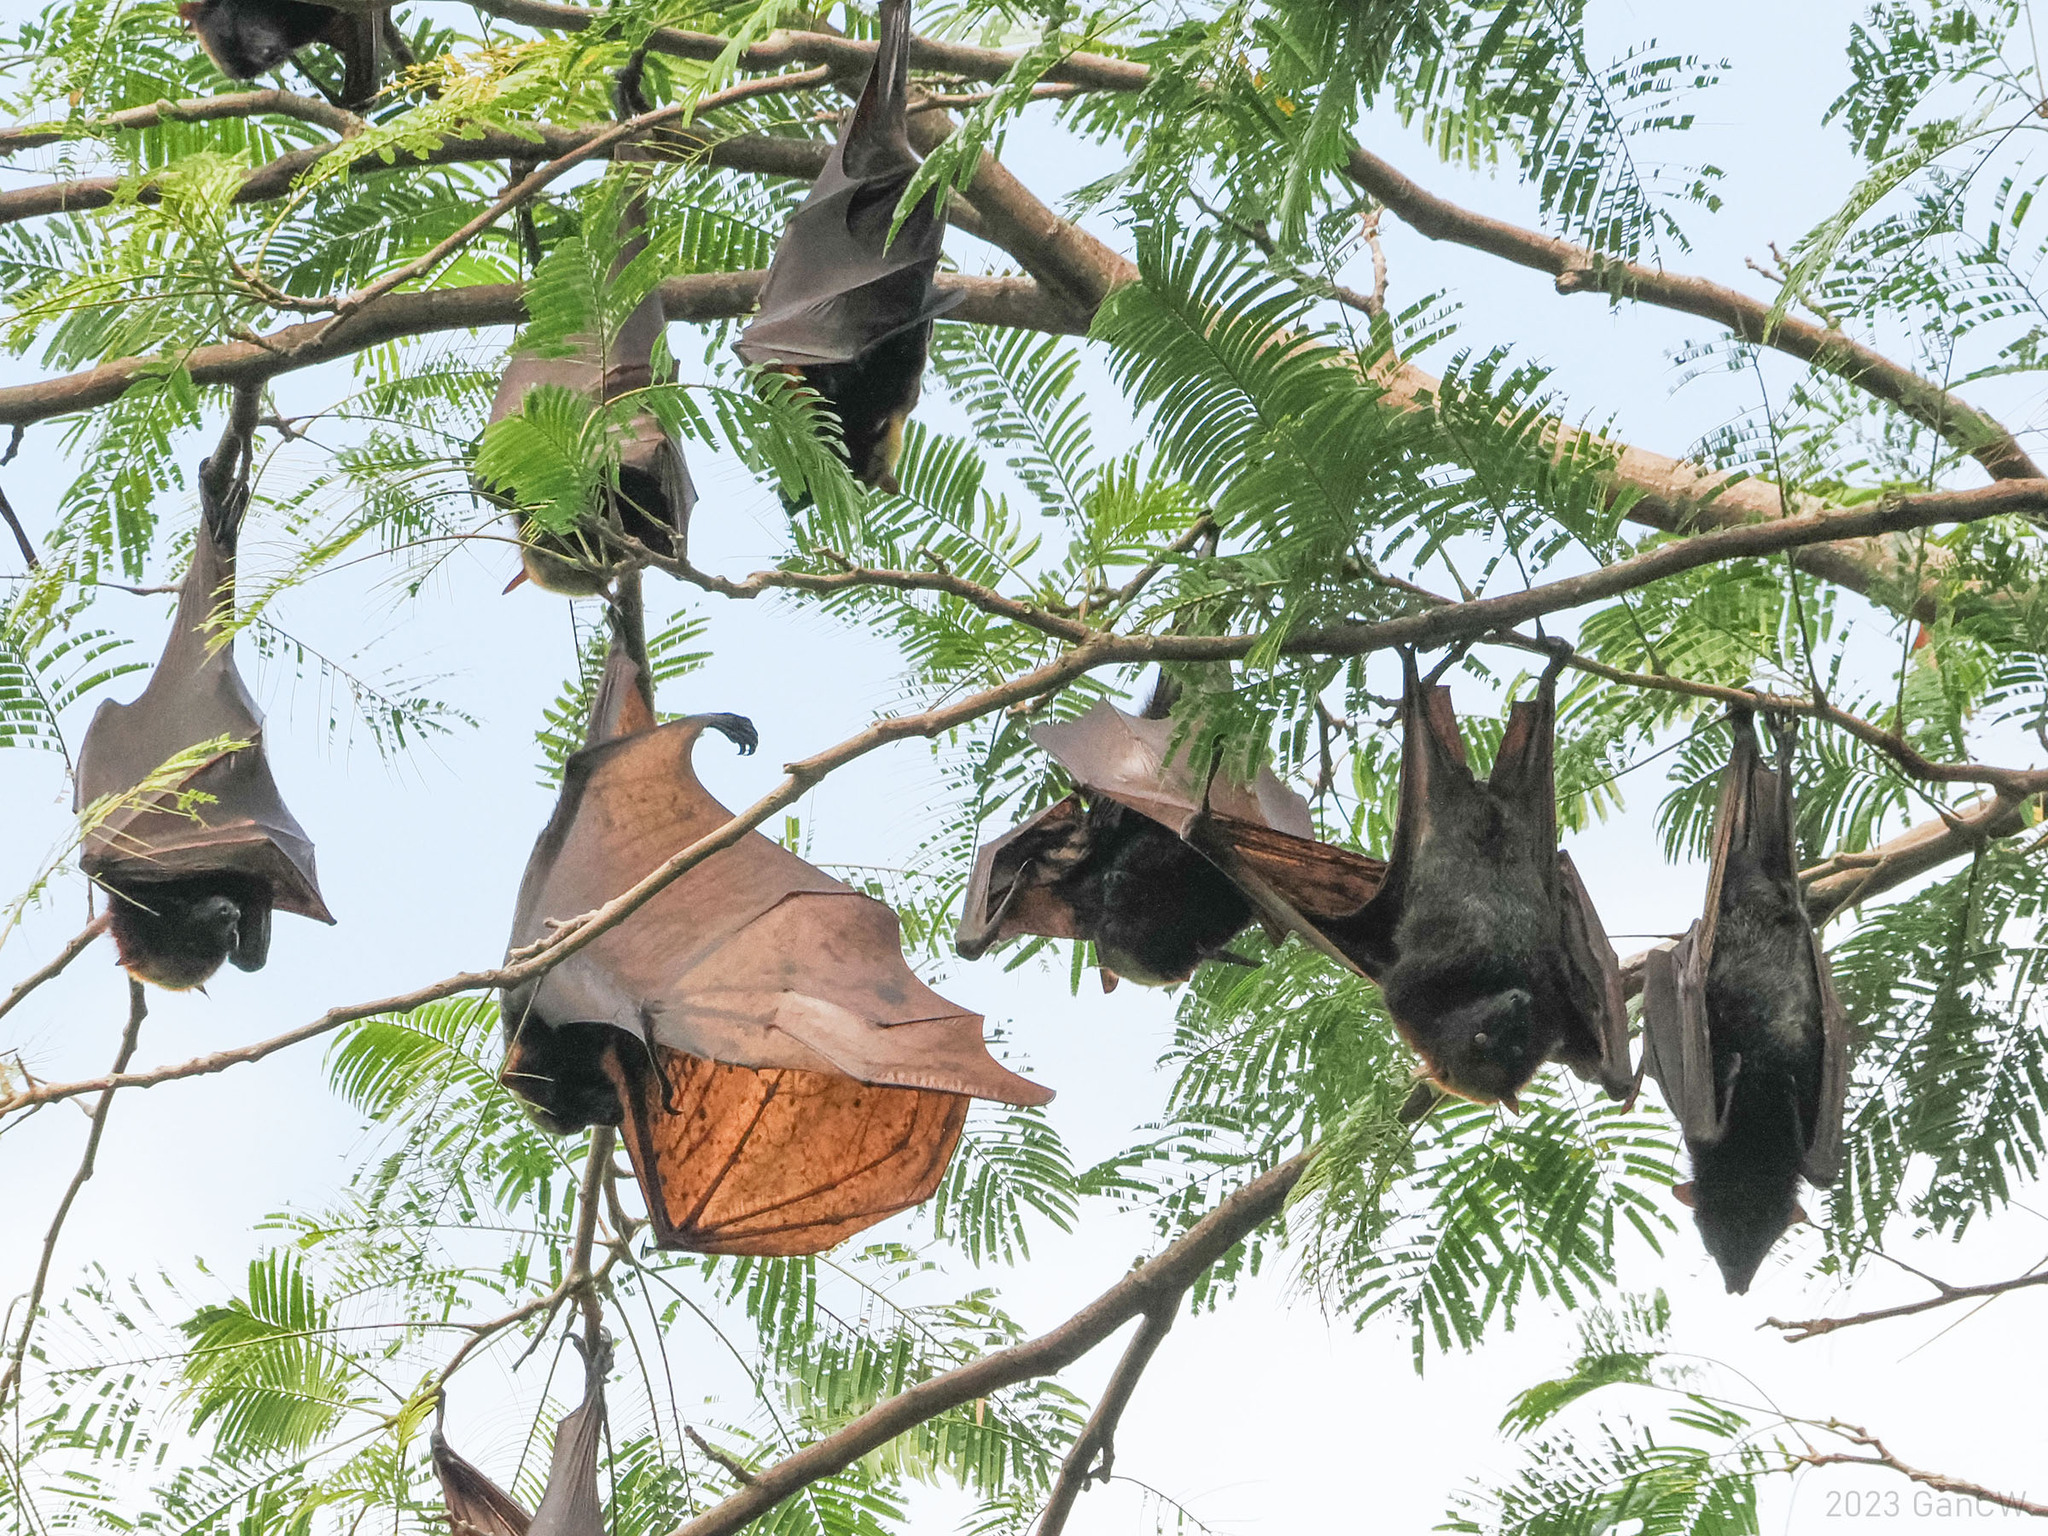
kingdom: Animalia
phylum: Chordata
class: Mammalia
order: Chiroptera
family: Pteropodidae
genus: Acerodon
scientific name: Acerodon jubatus
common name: Golden-capped fruit bat
